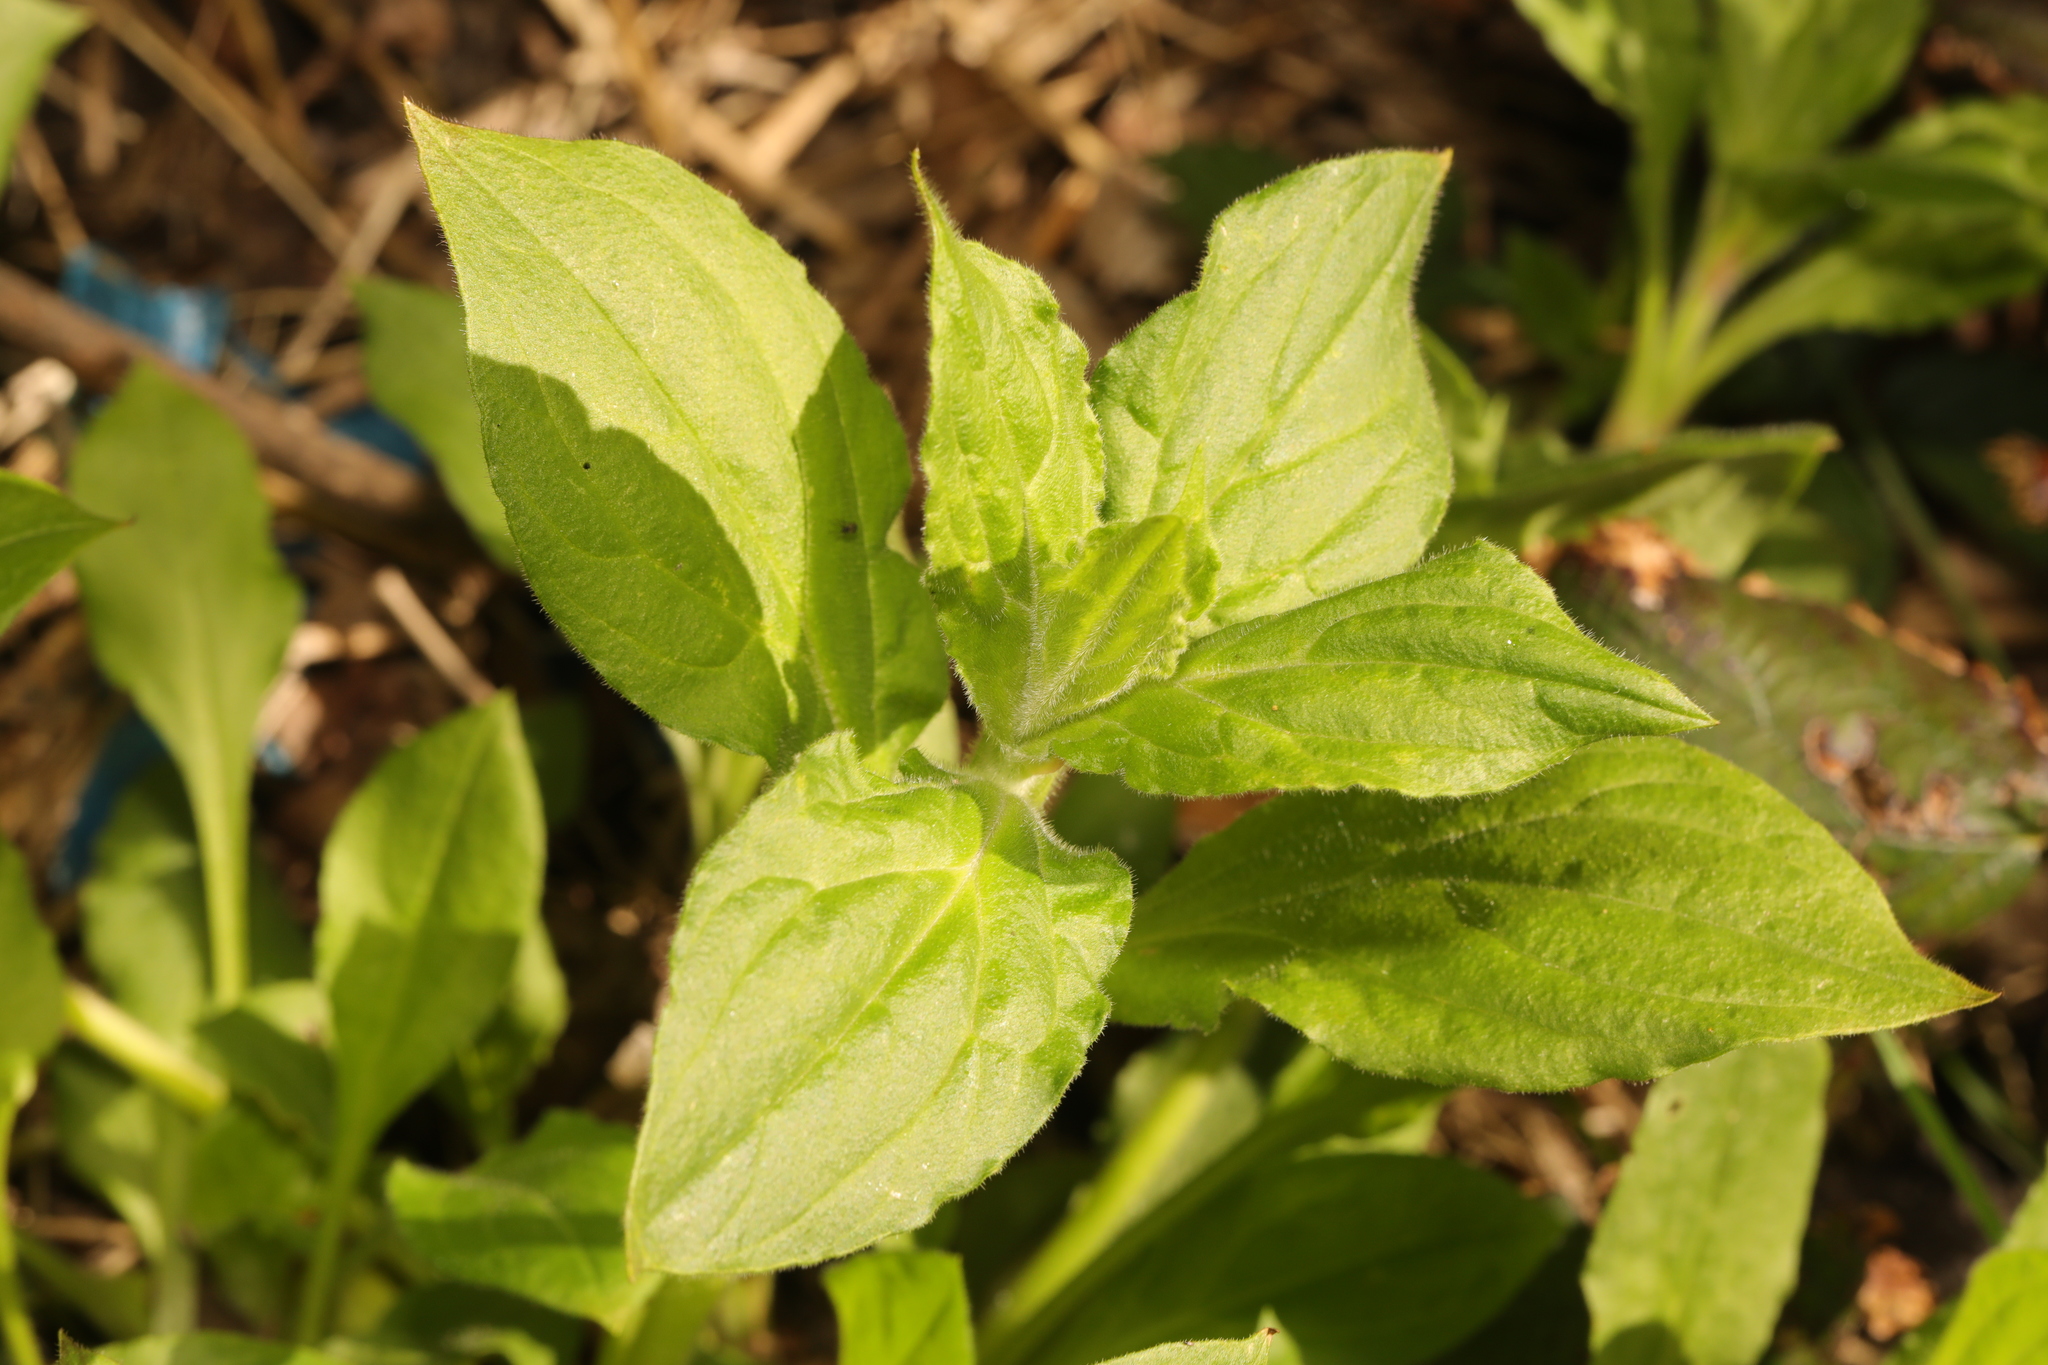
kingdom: Plantae
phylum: Tracheophyta
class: Magnoliopsida
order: Caryophyllales
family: Caryophyllaceae
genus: Silene
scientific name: Silene dioica
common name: Red campion
